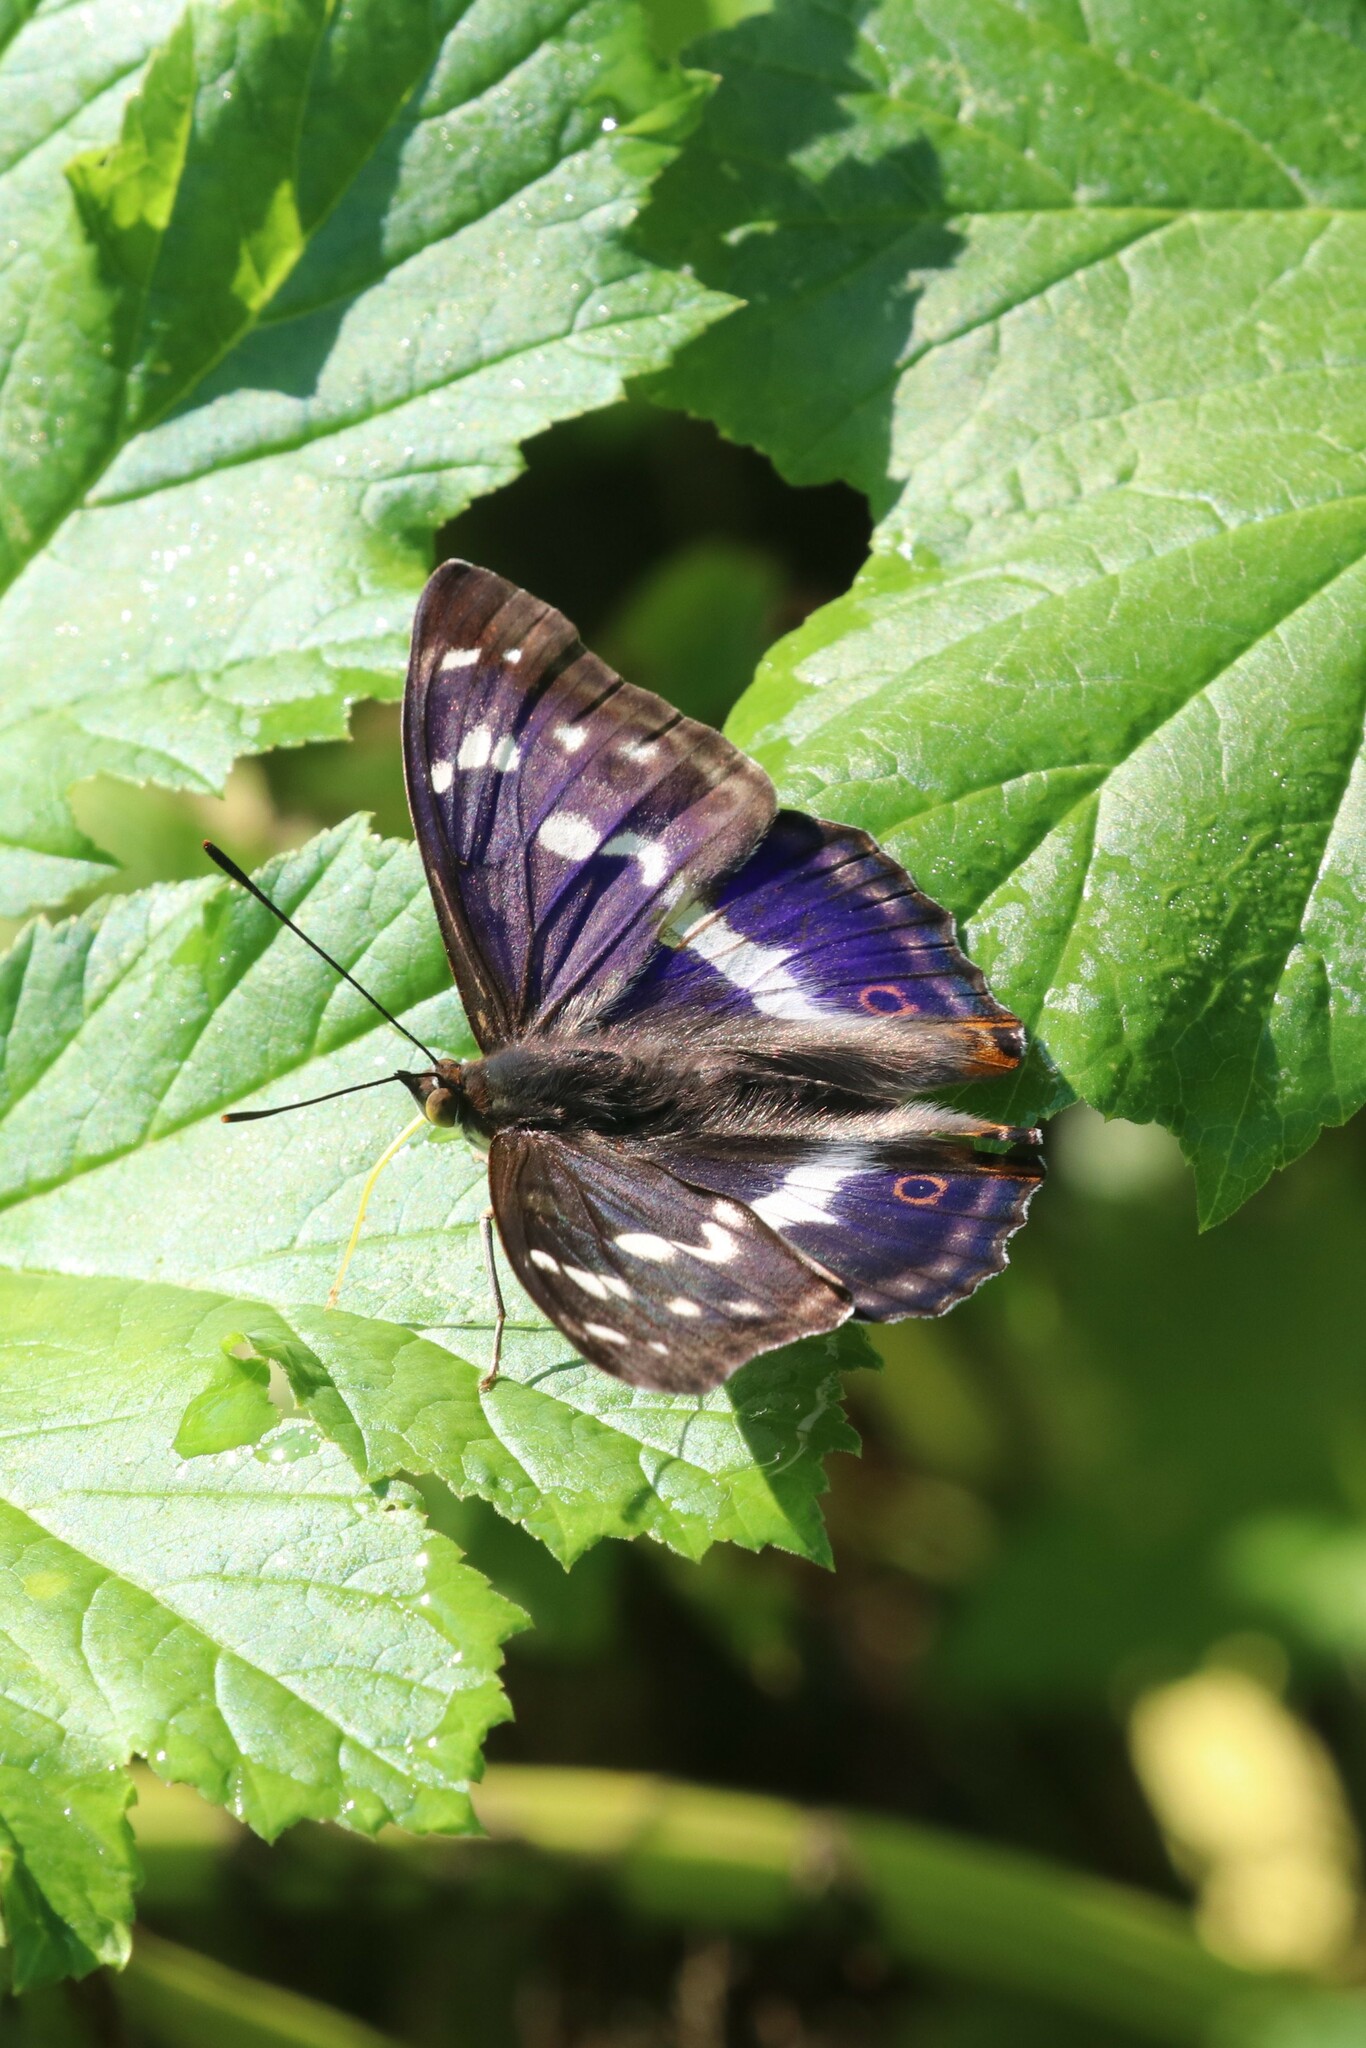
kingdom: Animalia
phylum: Arthropoda
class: Insecta
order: Lepidoptera
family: Nymphalidae
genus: Apatura
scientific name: Apatura iris
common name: Purple emperor
